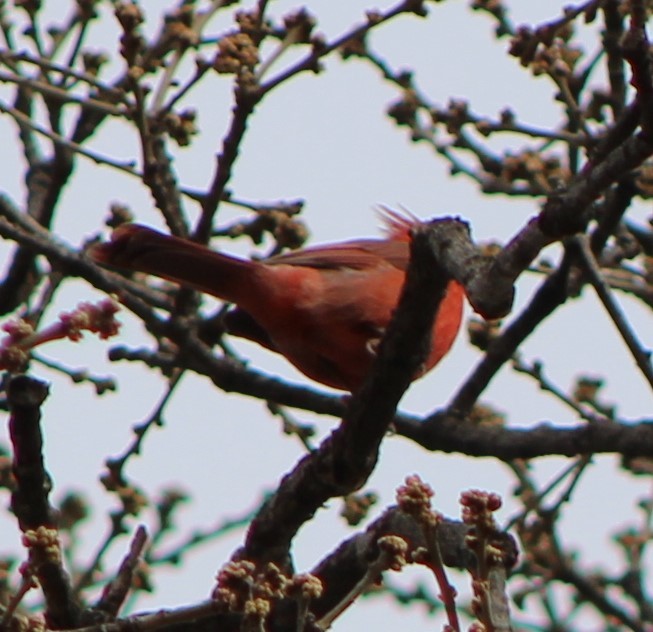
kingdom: Animalia
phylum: Chordata
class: Aves
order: Passeriformes
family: Cardinalidae
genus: Cardinalis
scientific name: Cardinalis cardinalis
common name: Northern cardinal
